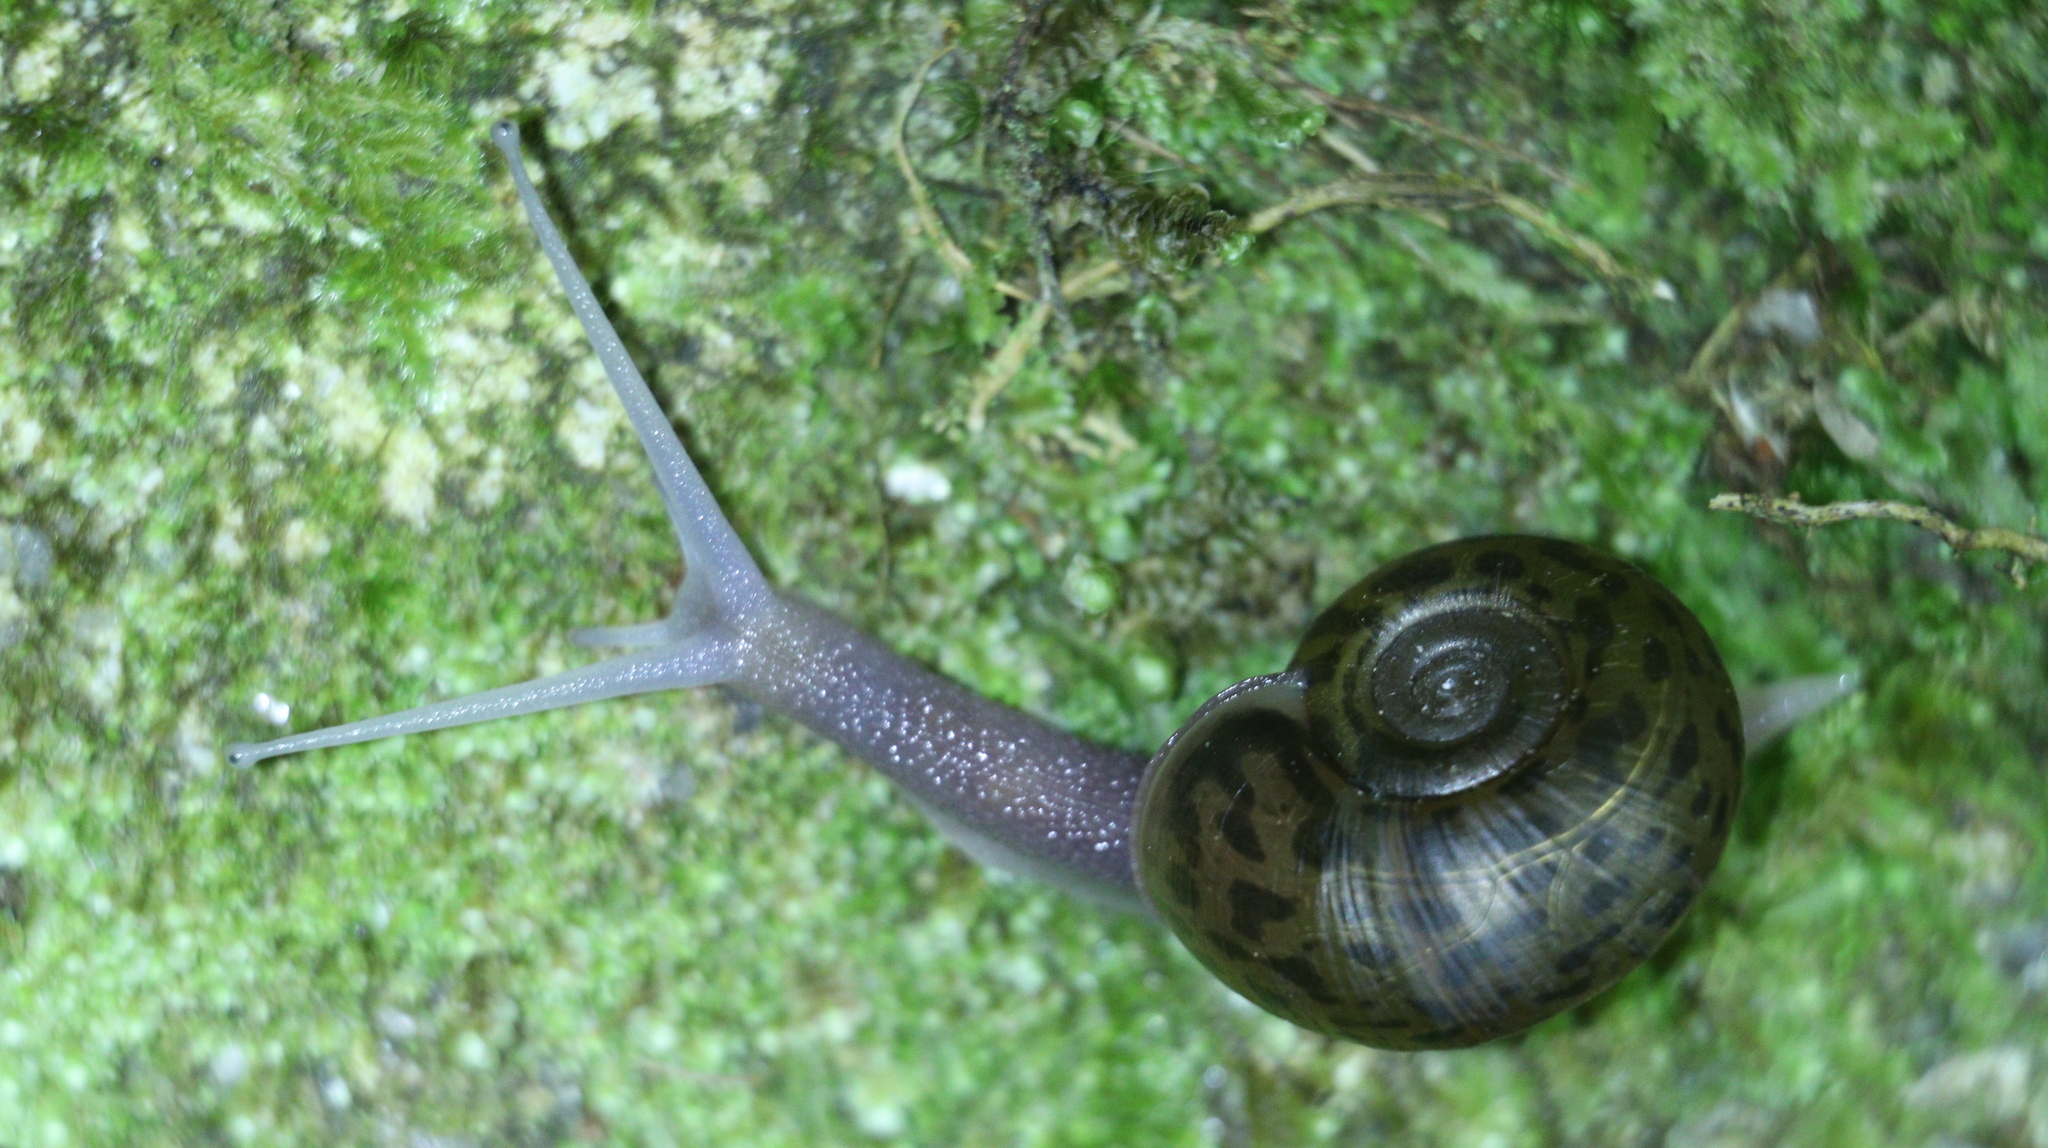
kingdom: Animalia
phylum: Mollusca
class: Gastropoda
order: Stylommatophora
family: Elonidae
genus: Elona
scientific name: Elona quimperiana
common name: Quimper snail
